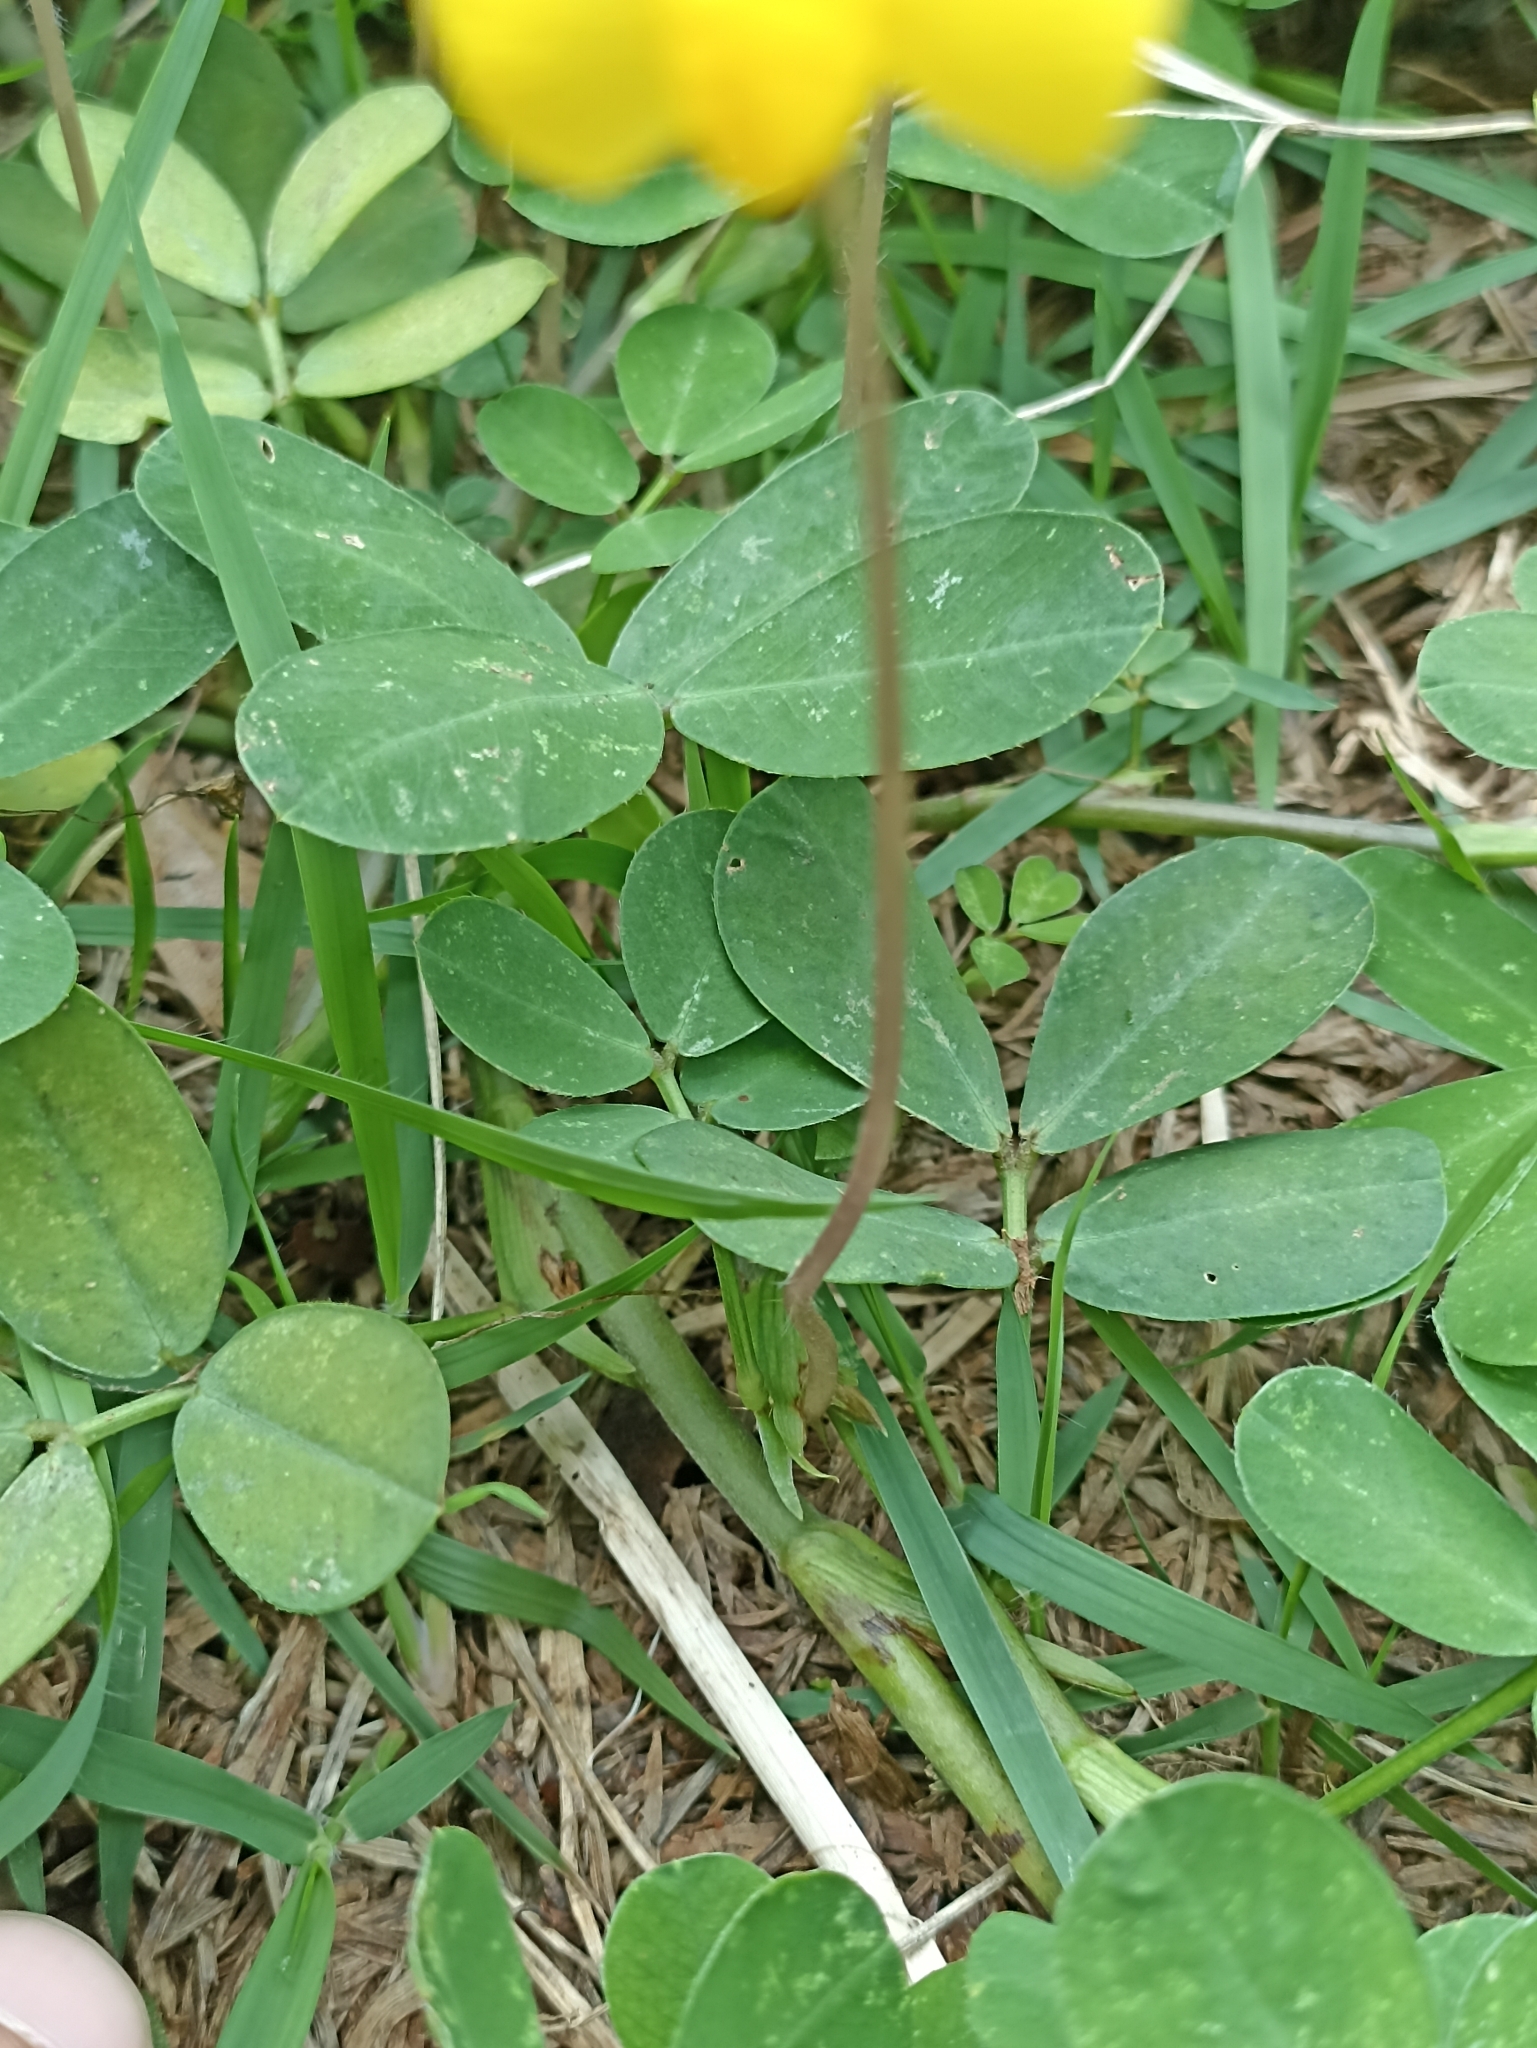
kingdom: Plantae
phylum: Tracheophyta
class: Magnoliopsida
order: Fabales
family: Fabaceae
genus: Arachis
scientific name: Arachis repens
